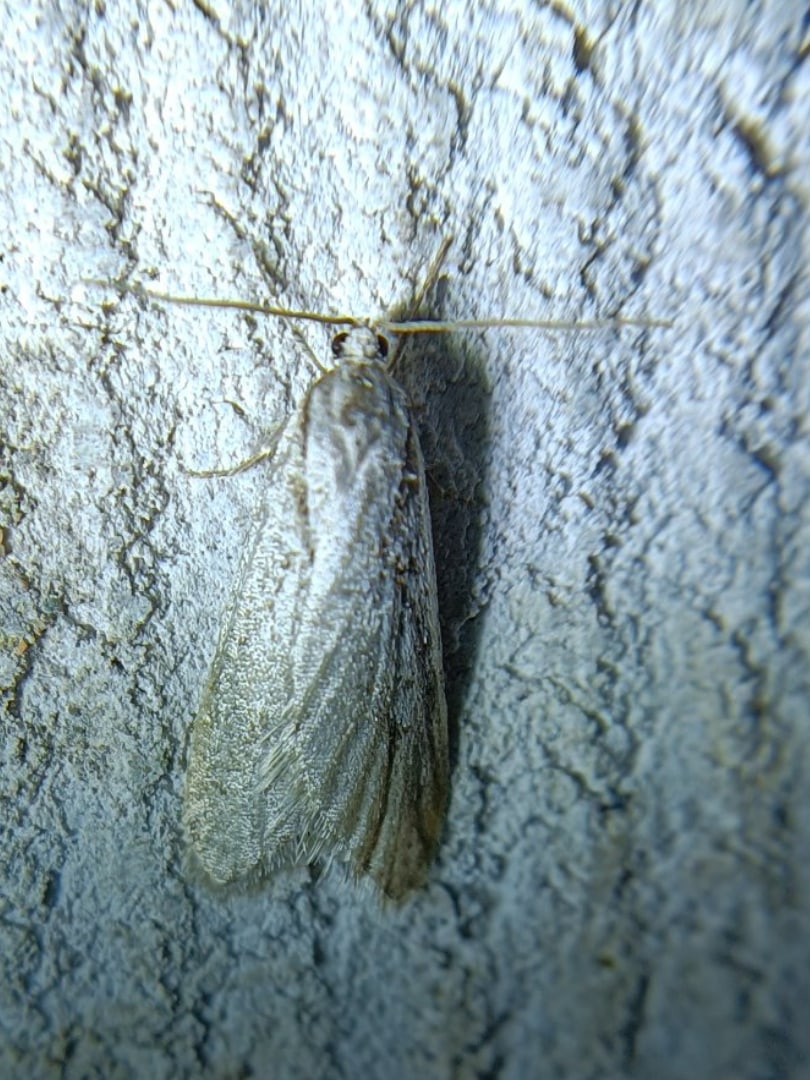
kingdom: Animalia
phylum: Arthropoda
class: Insecta
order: Lepidoptera
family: Depressariidae
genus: Semioscopis
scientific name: Semioscopis avellanella
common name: Early flat-body
